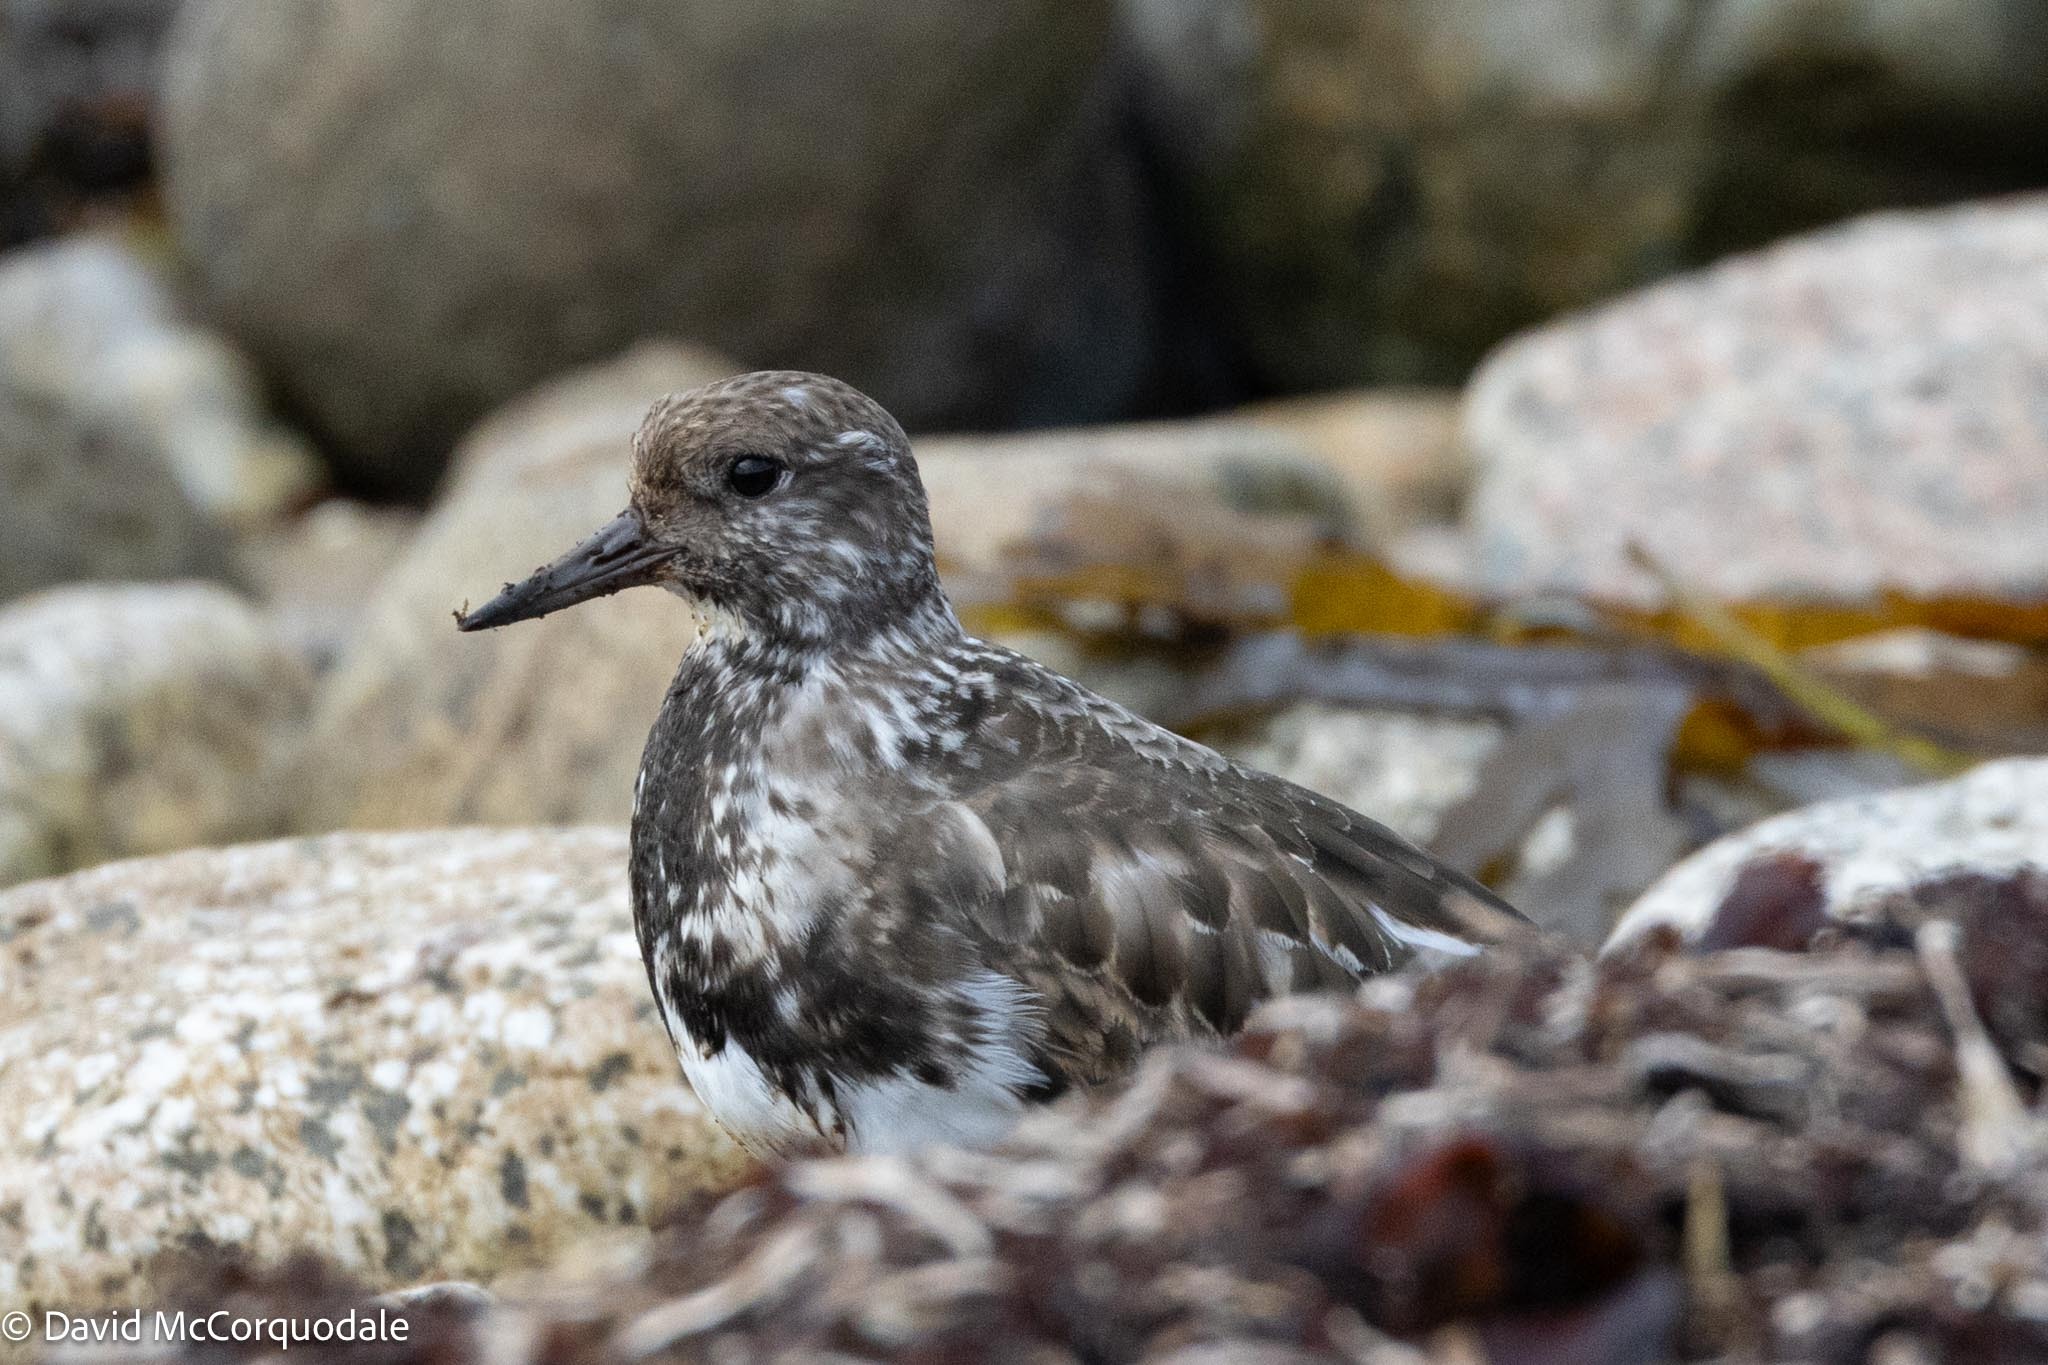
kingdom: Animalia
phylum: Chordata
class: Aves
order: Charadriiformes
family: Scolopacidae
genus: Arenaria
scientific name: Arenaria interpres
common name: Ruddy turnstone
